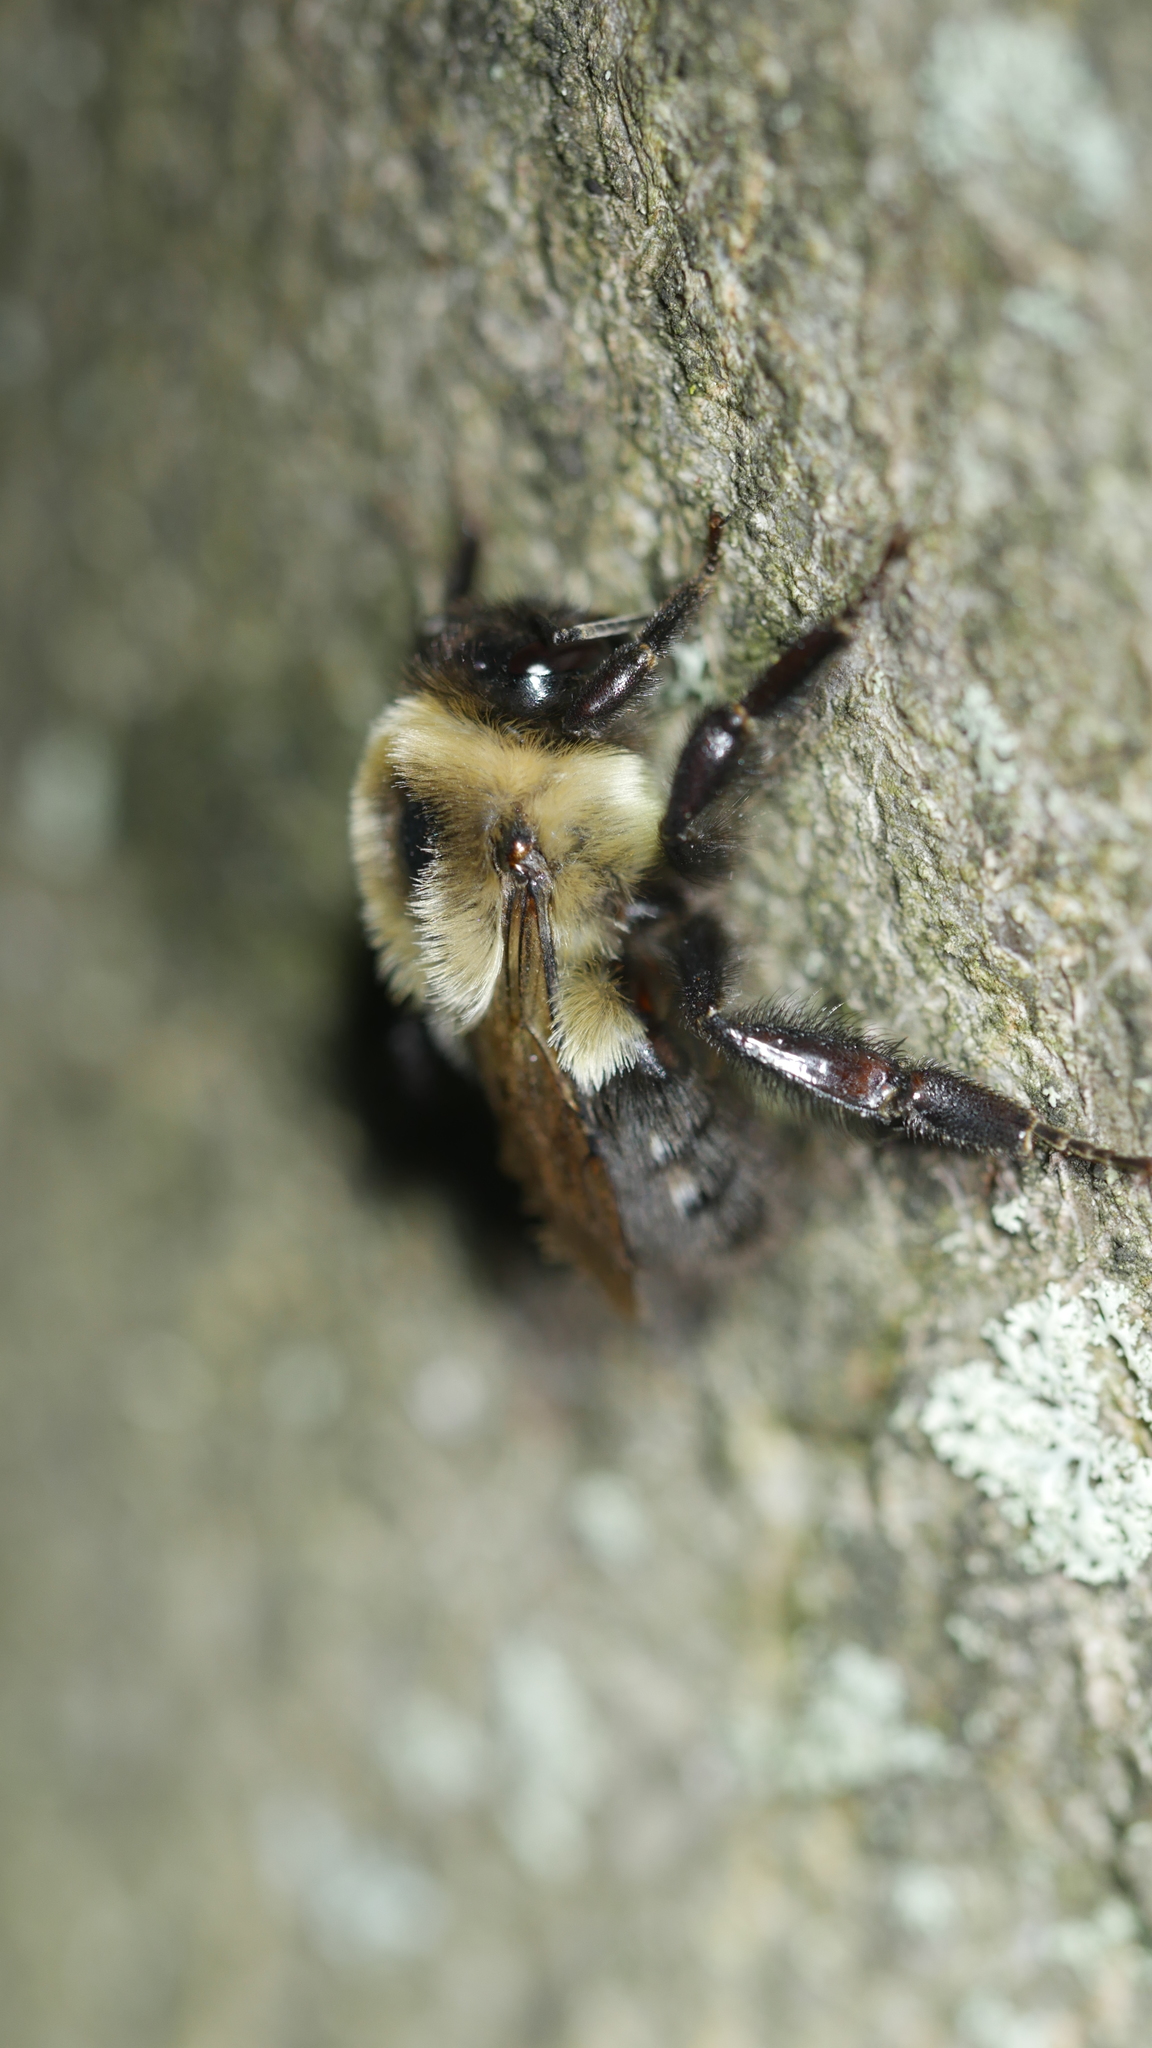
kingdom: Animalia
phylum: Arthropoda
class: Insecta
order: Hymenoptera
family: Apidae
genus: Bombus
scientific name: Bombus impatiens
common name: Common eastern bumble bee
